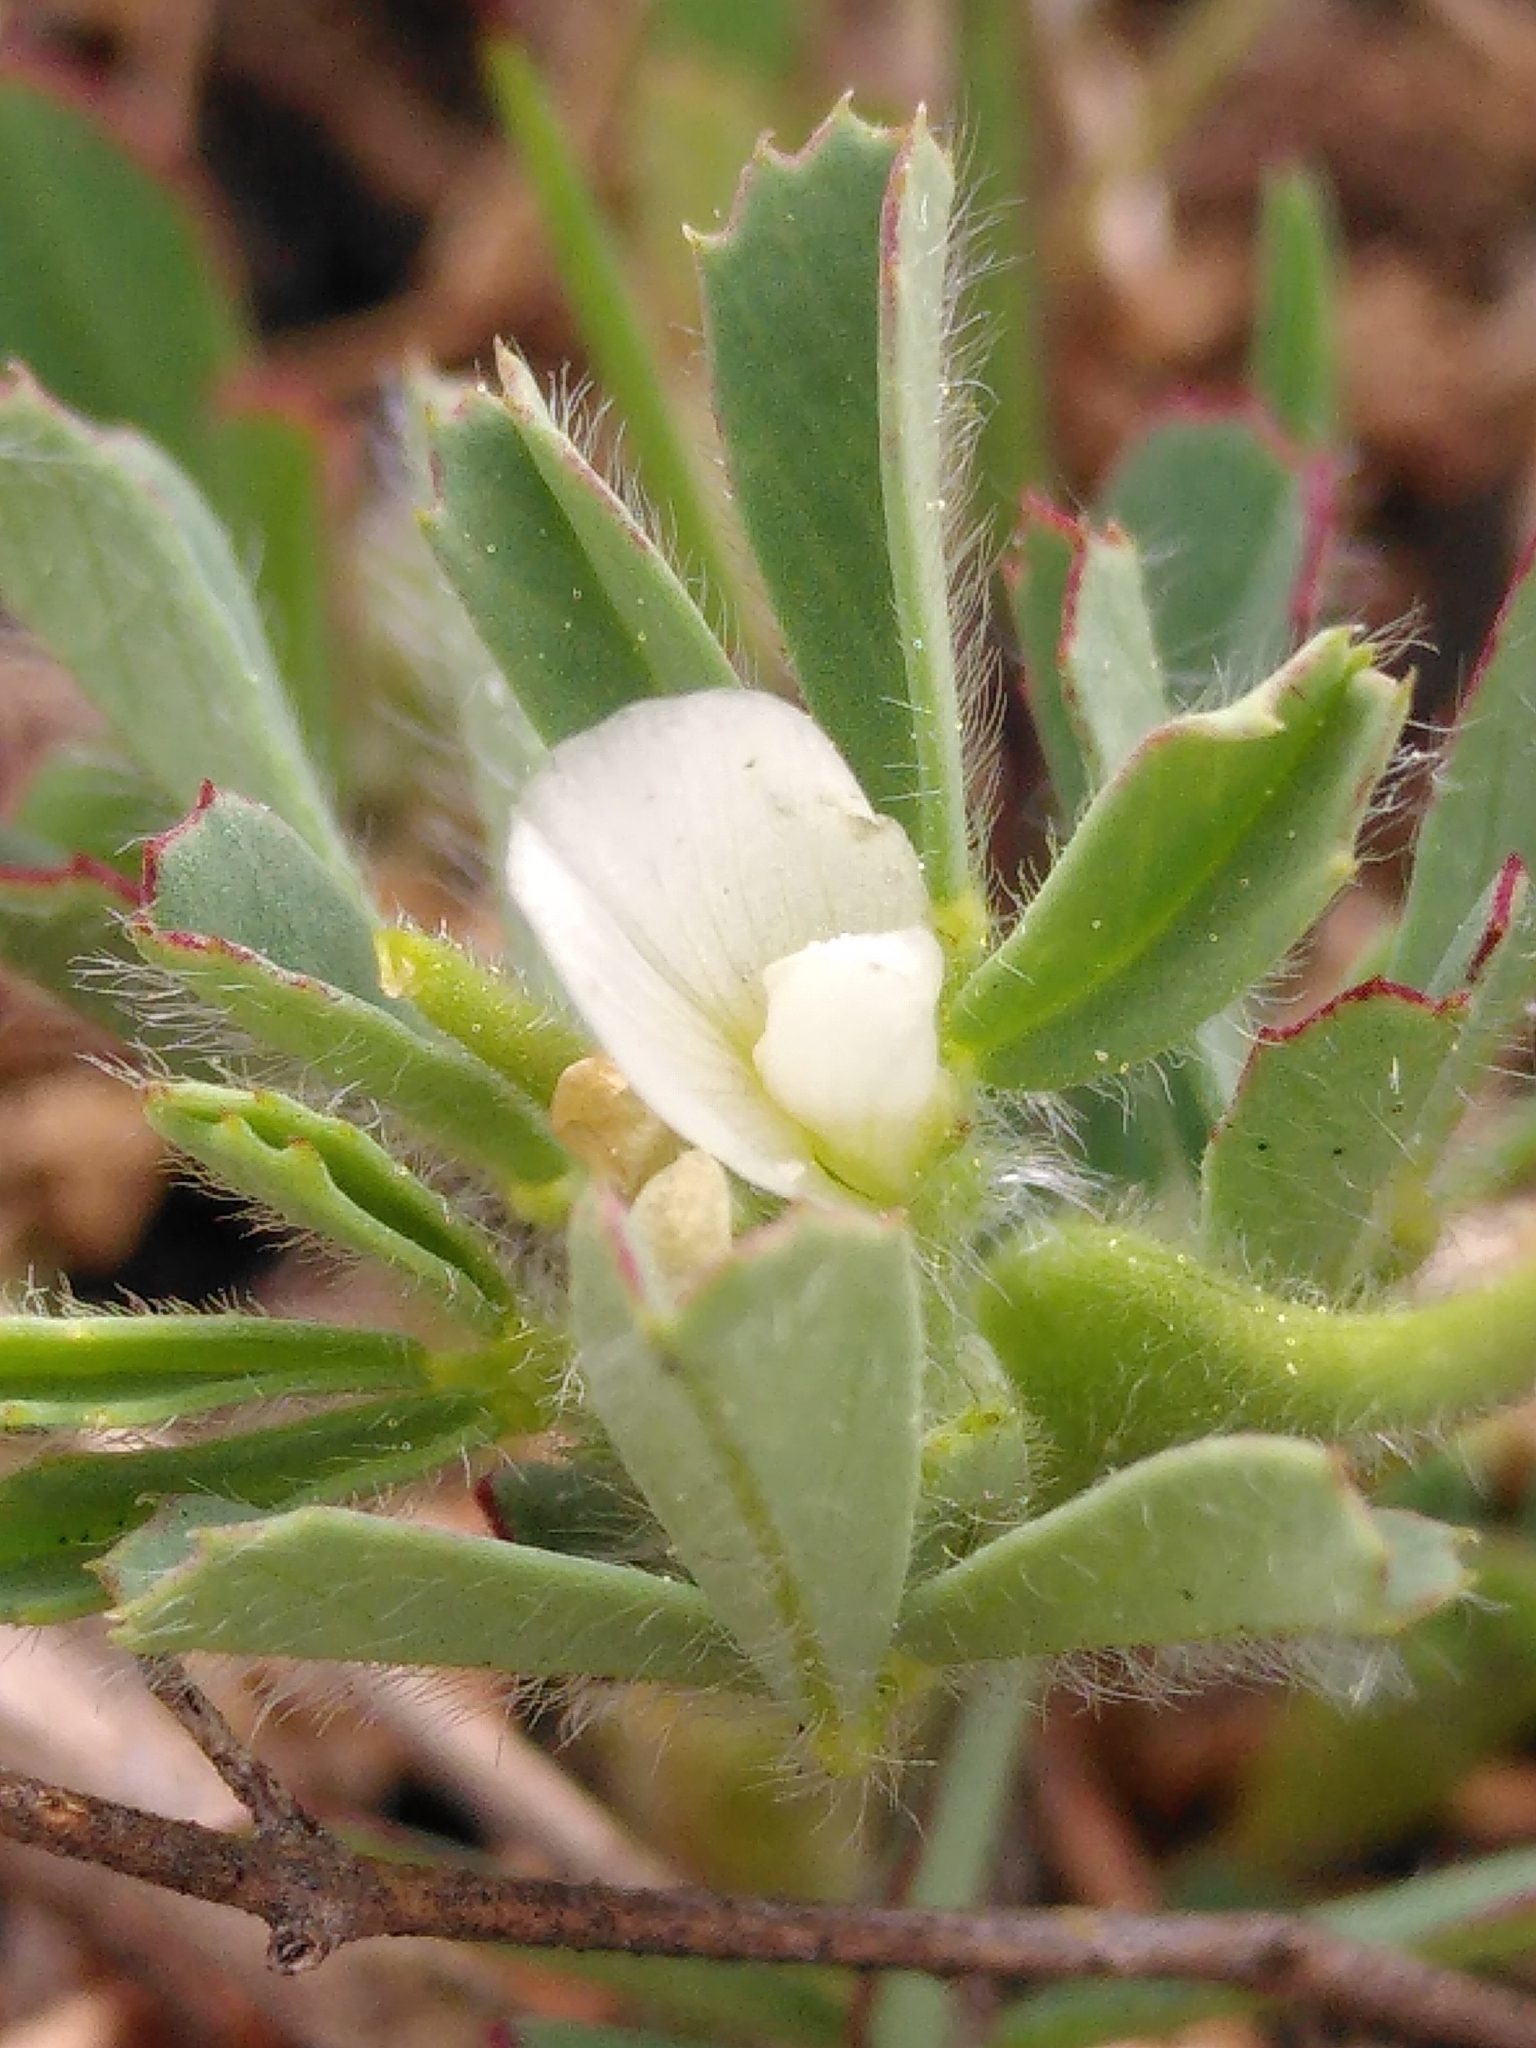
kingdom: Plantae
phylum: Tracheophyta
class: Magnoliopsida
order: Fabales
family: Fabaceae
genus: Trigonella
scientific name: Trigonella gladiata
